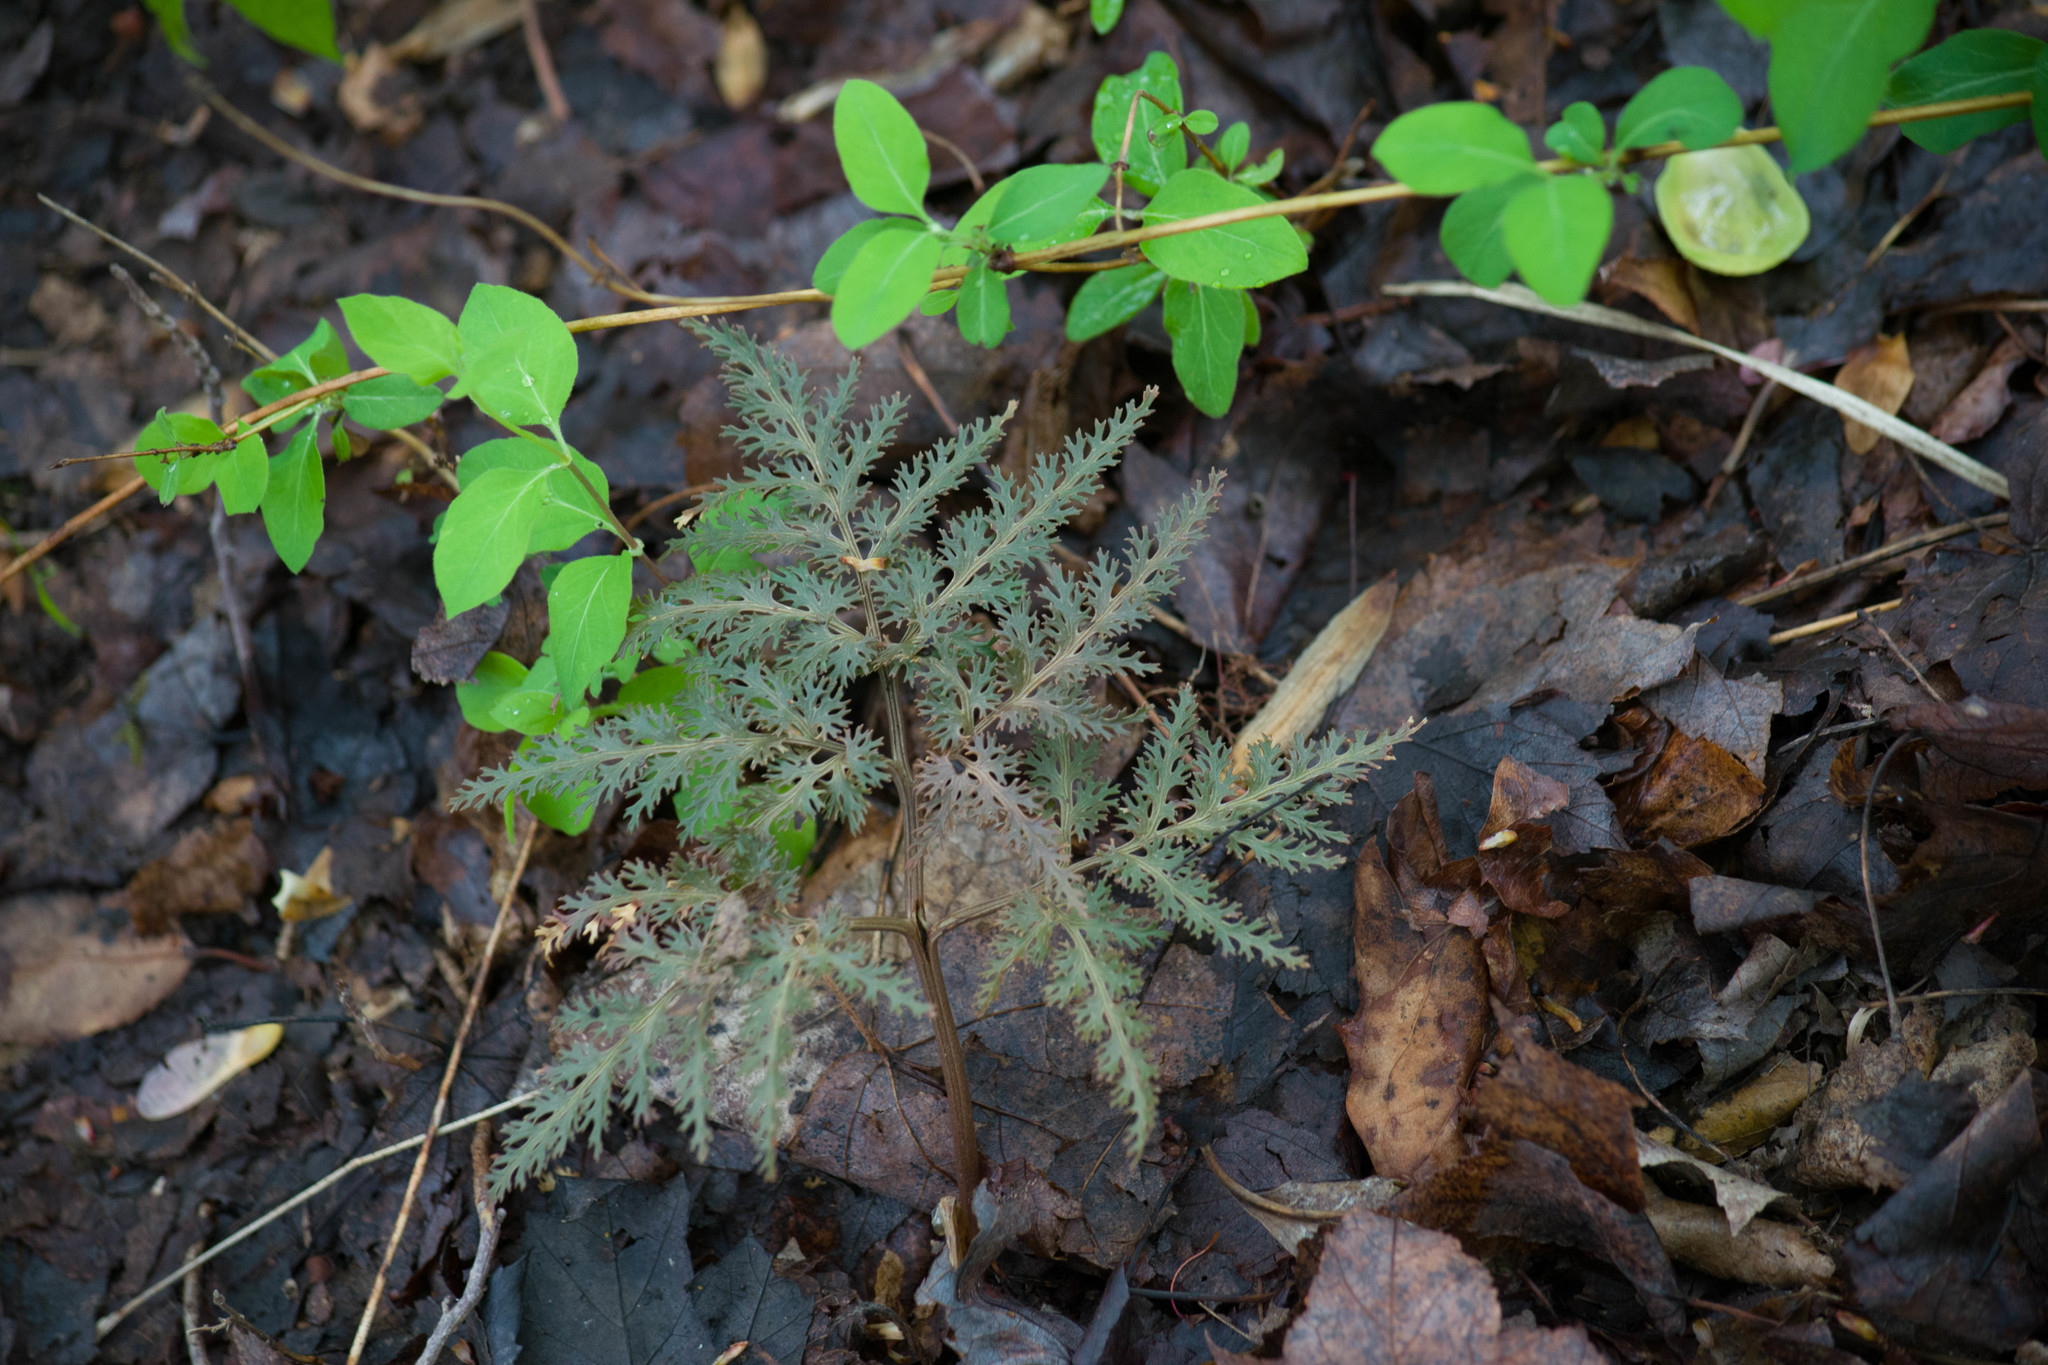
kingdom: Plantae
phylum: Tracheophyta
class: Polypodiopsida
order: Ophioglossales
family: Ophioglossaceae
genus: Sceptridium
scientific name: Sceptridium dissectum
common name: Cut-leaved grapefern
